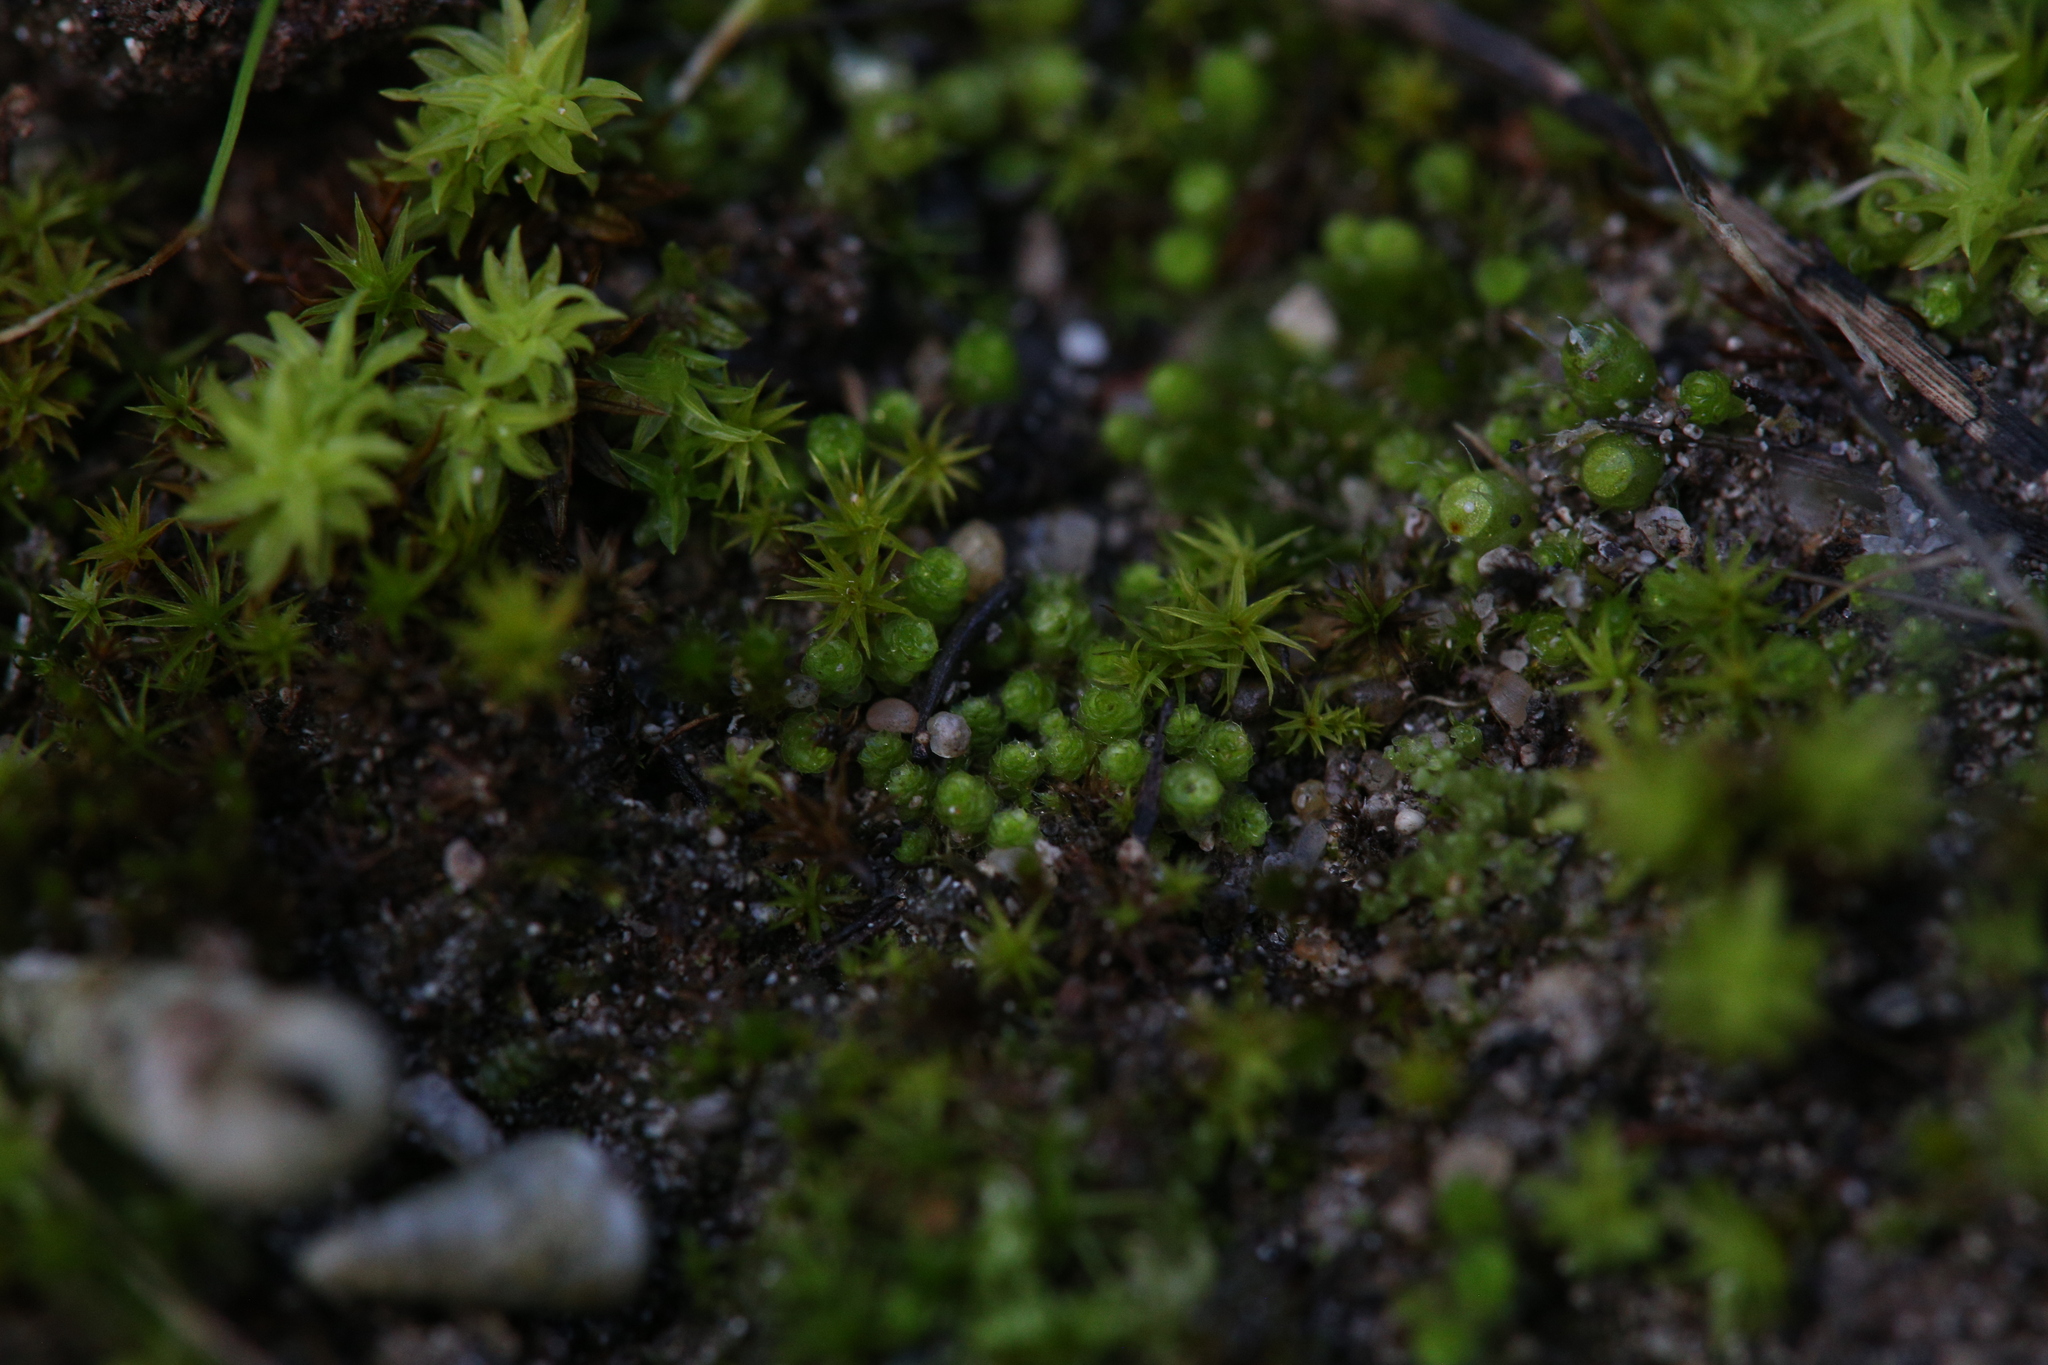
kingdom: Plantae
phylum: Bryophyta
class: Bryopsida
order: Gigaspermales
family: Gigaspermaceae
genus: Gigaspermum
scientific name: Gigaspermum repens
